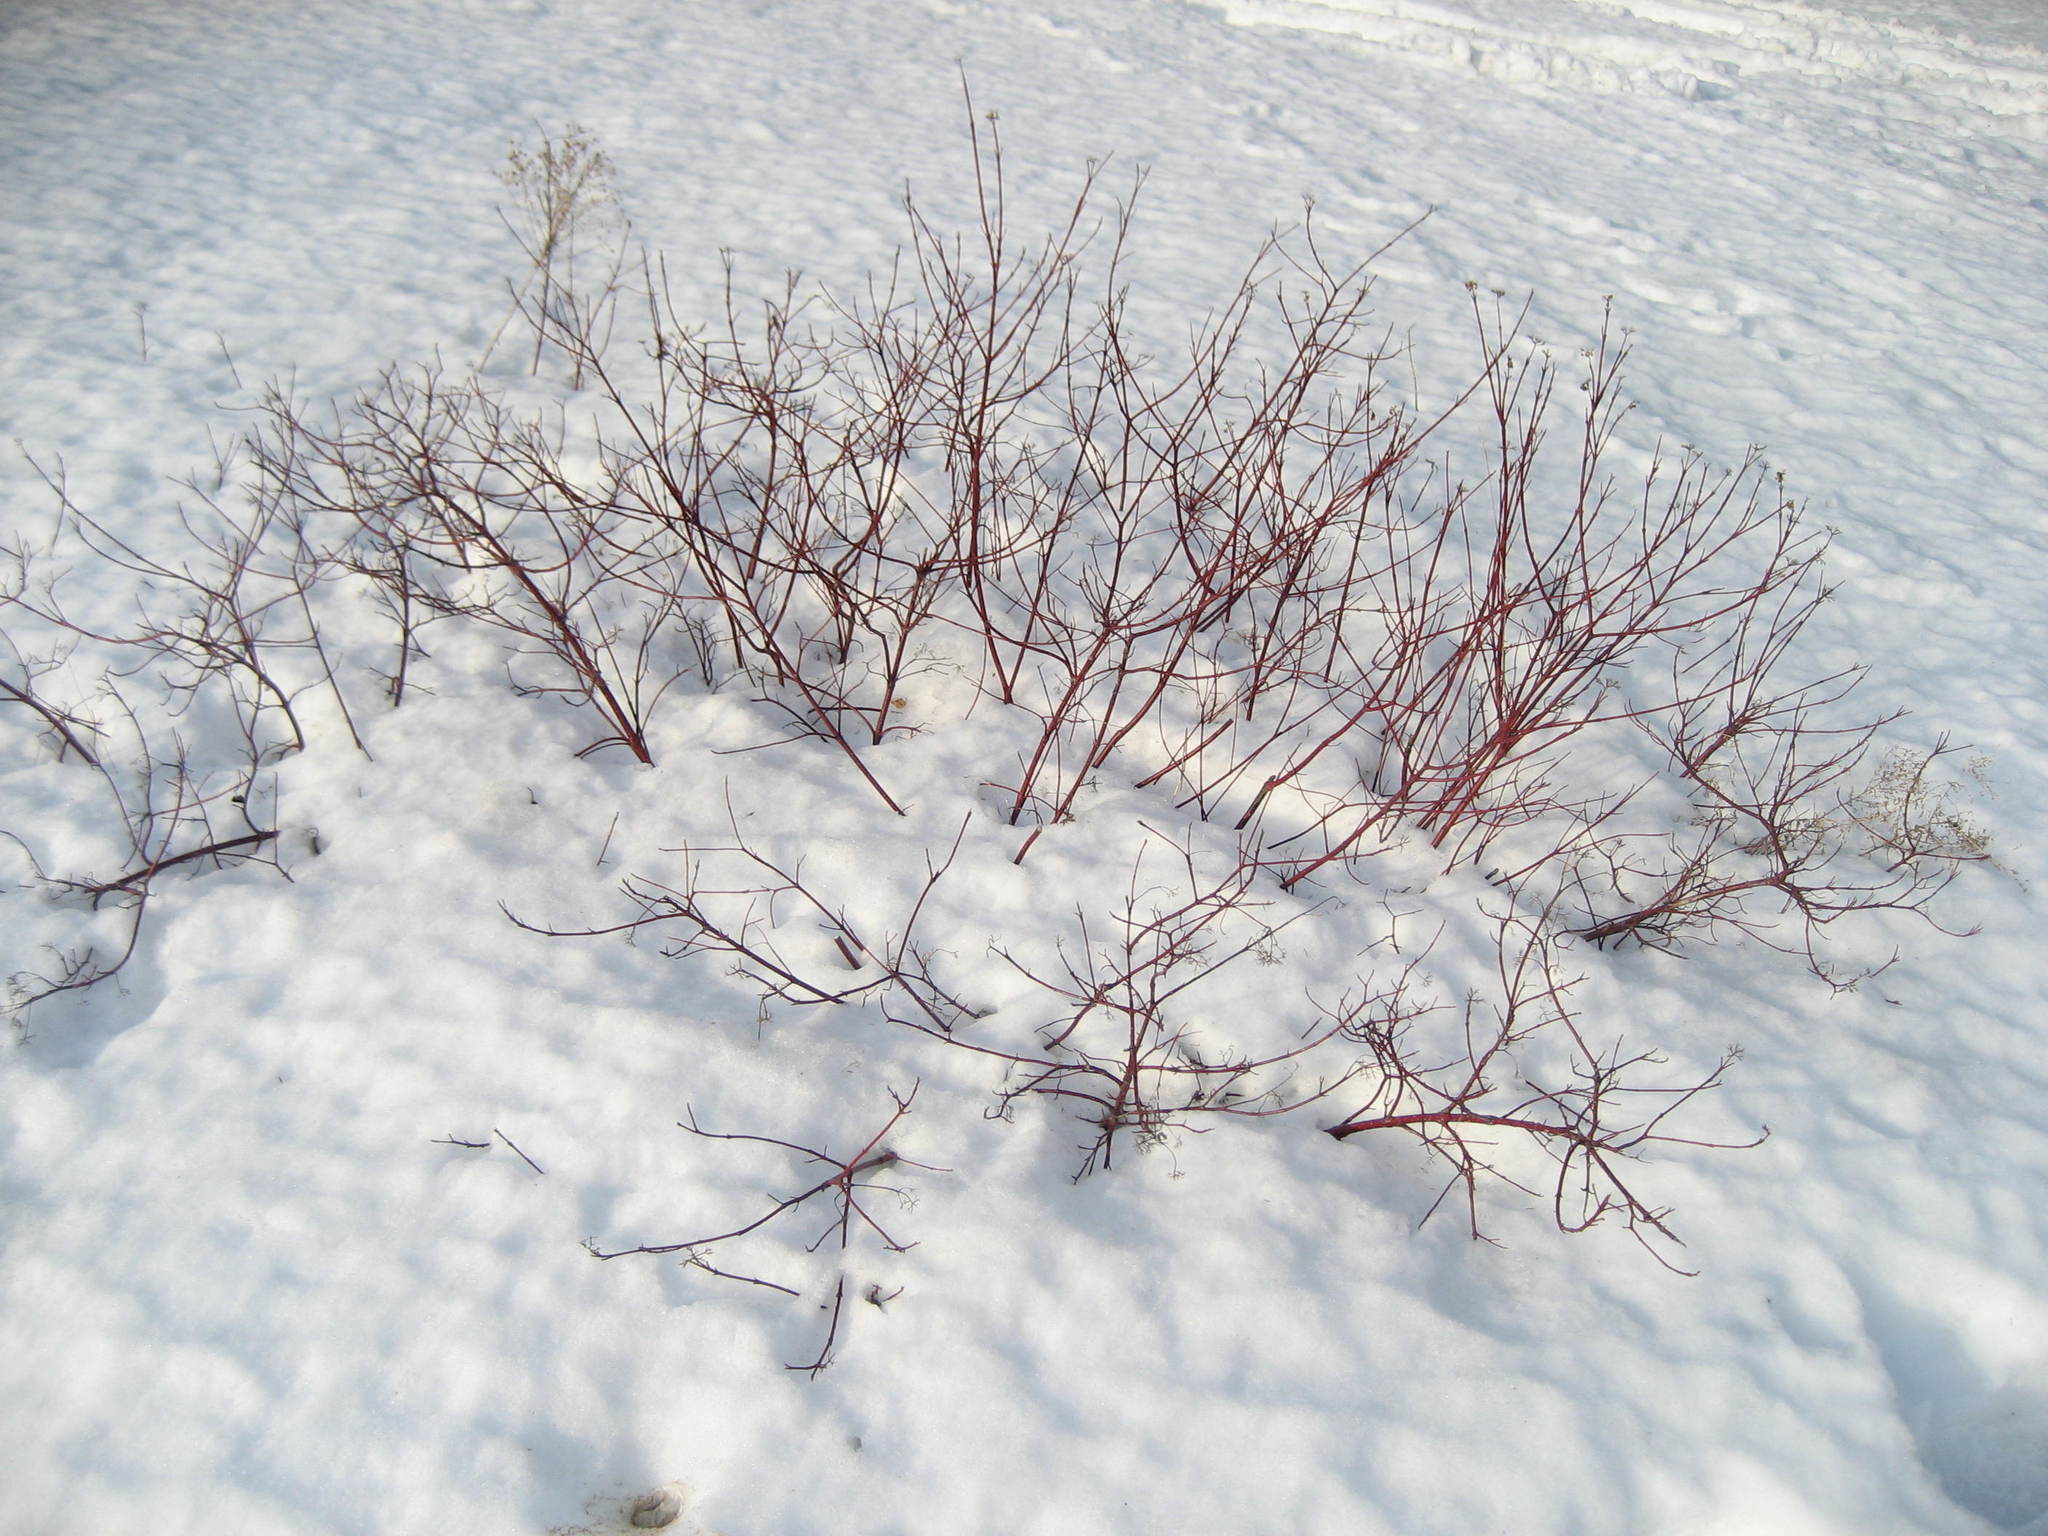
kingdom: Plantae
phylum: Tracheophyta
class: Magnoliopsida
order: Cornales
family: Cornaceae
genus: Cornus
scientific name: Cornus sericea
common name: Red-osier dogwood
